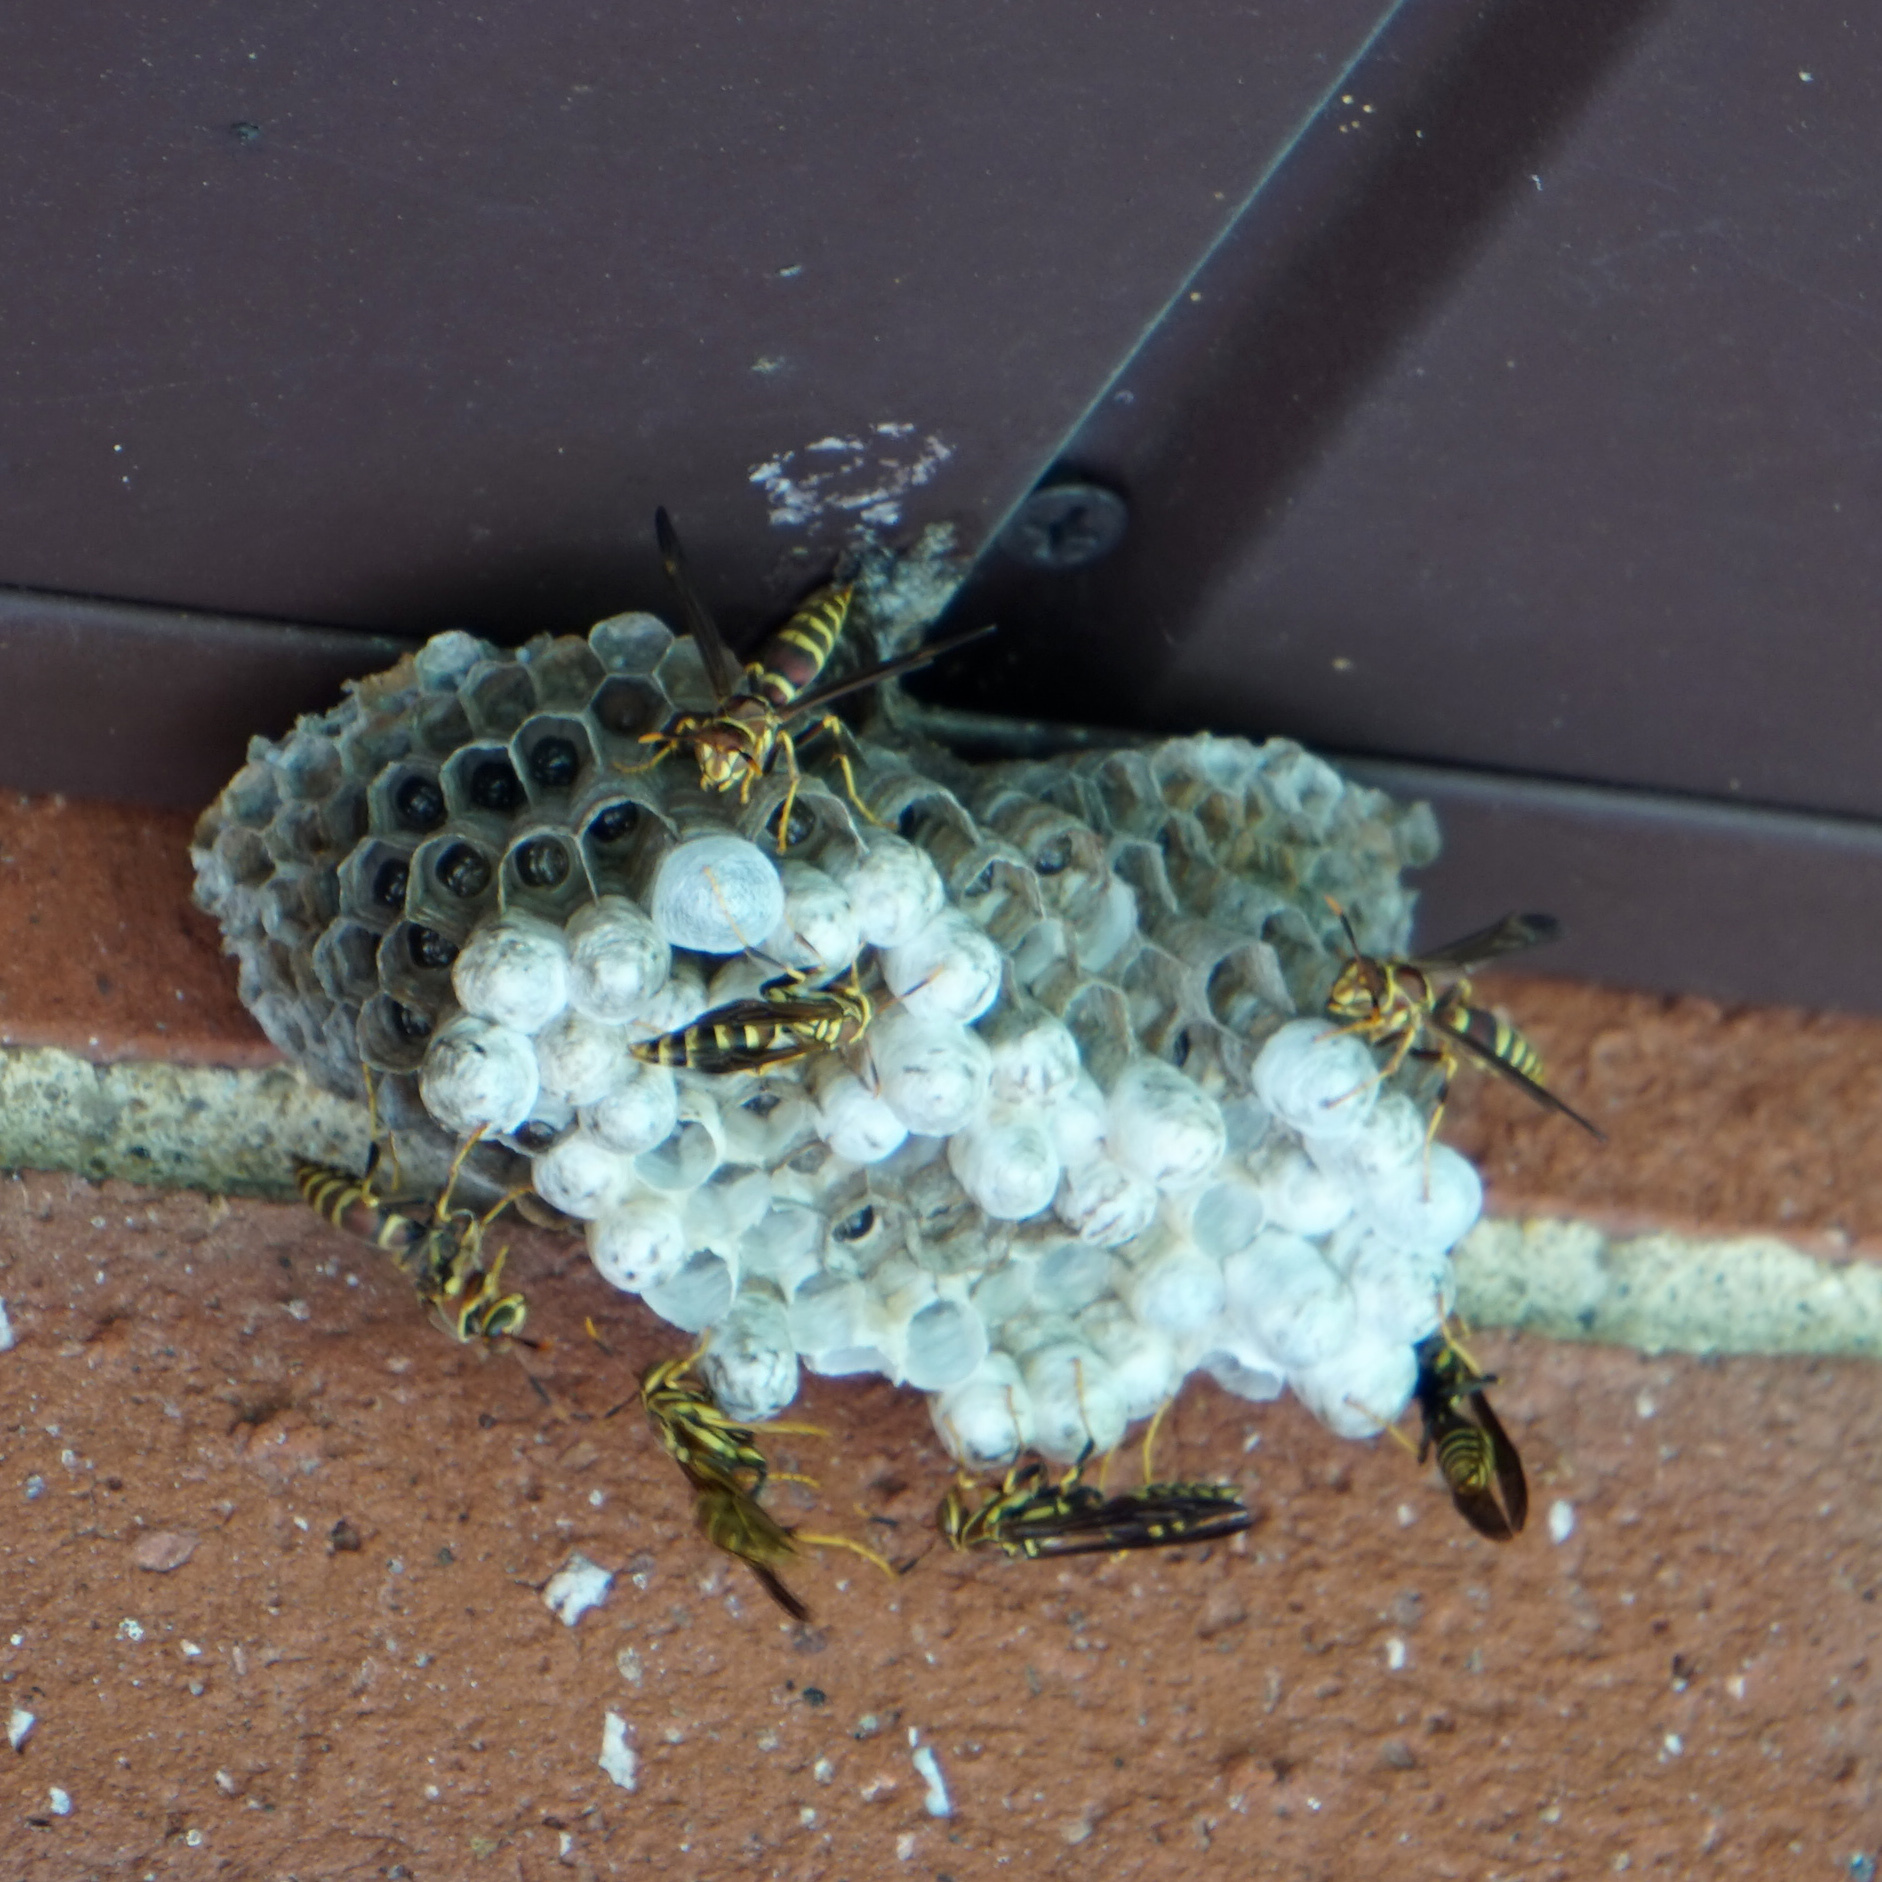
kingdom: Animalia
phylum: Arthropoda
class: Insecta
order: Hymenoptera
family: Eumenidae
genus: Polistes
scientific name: Polistes exclamans
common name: Paper wasp
